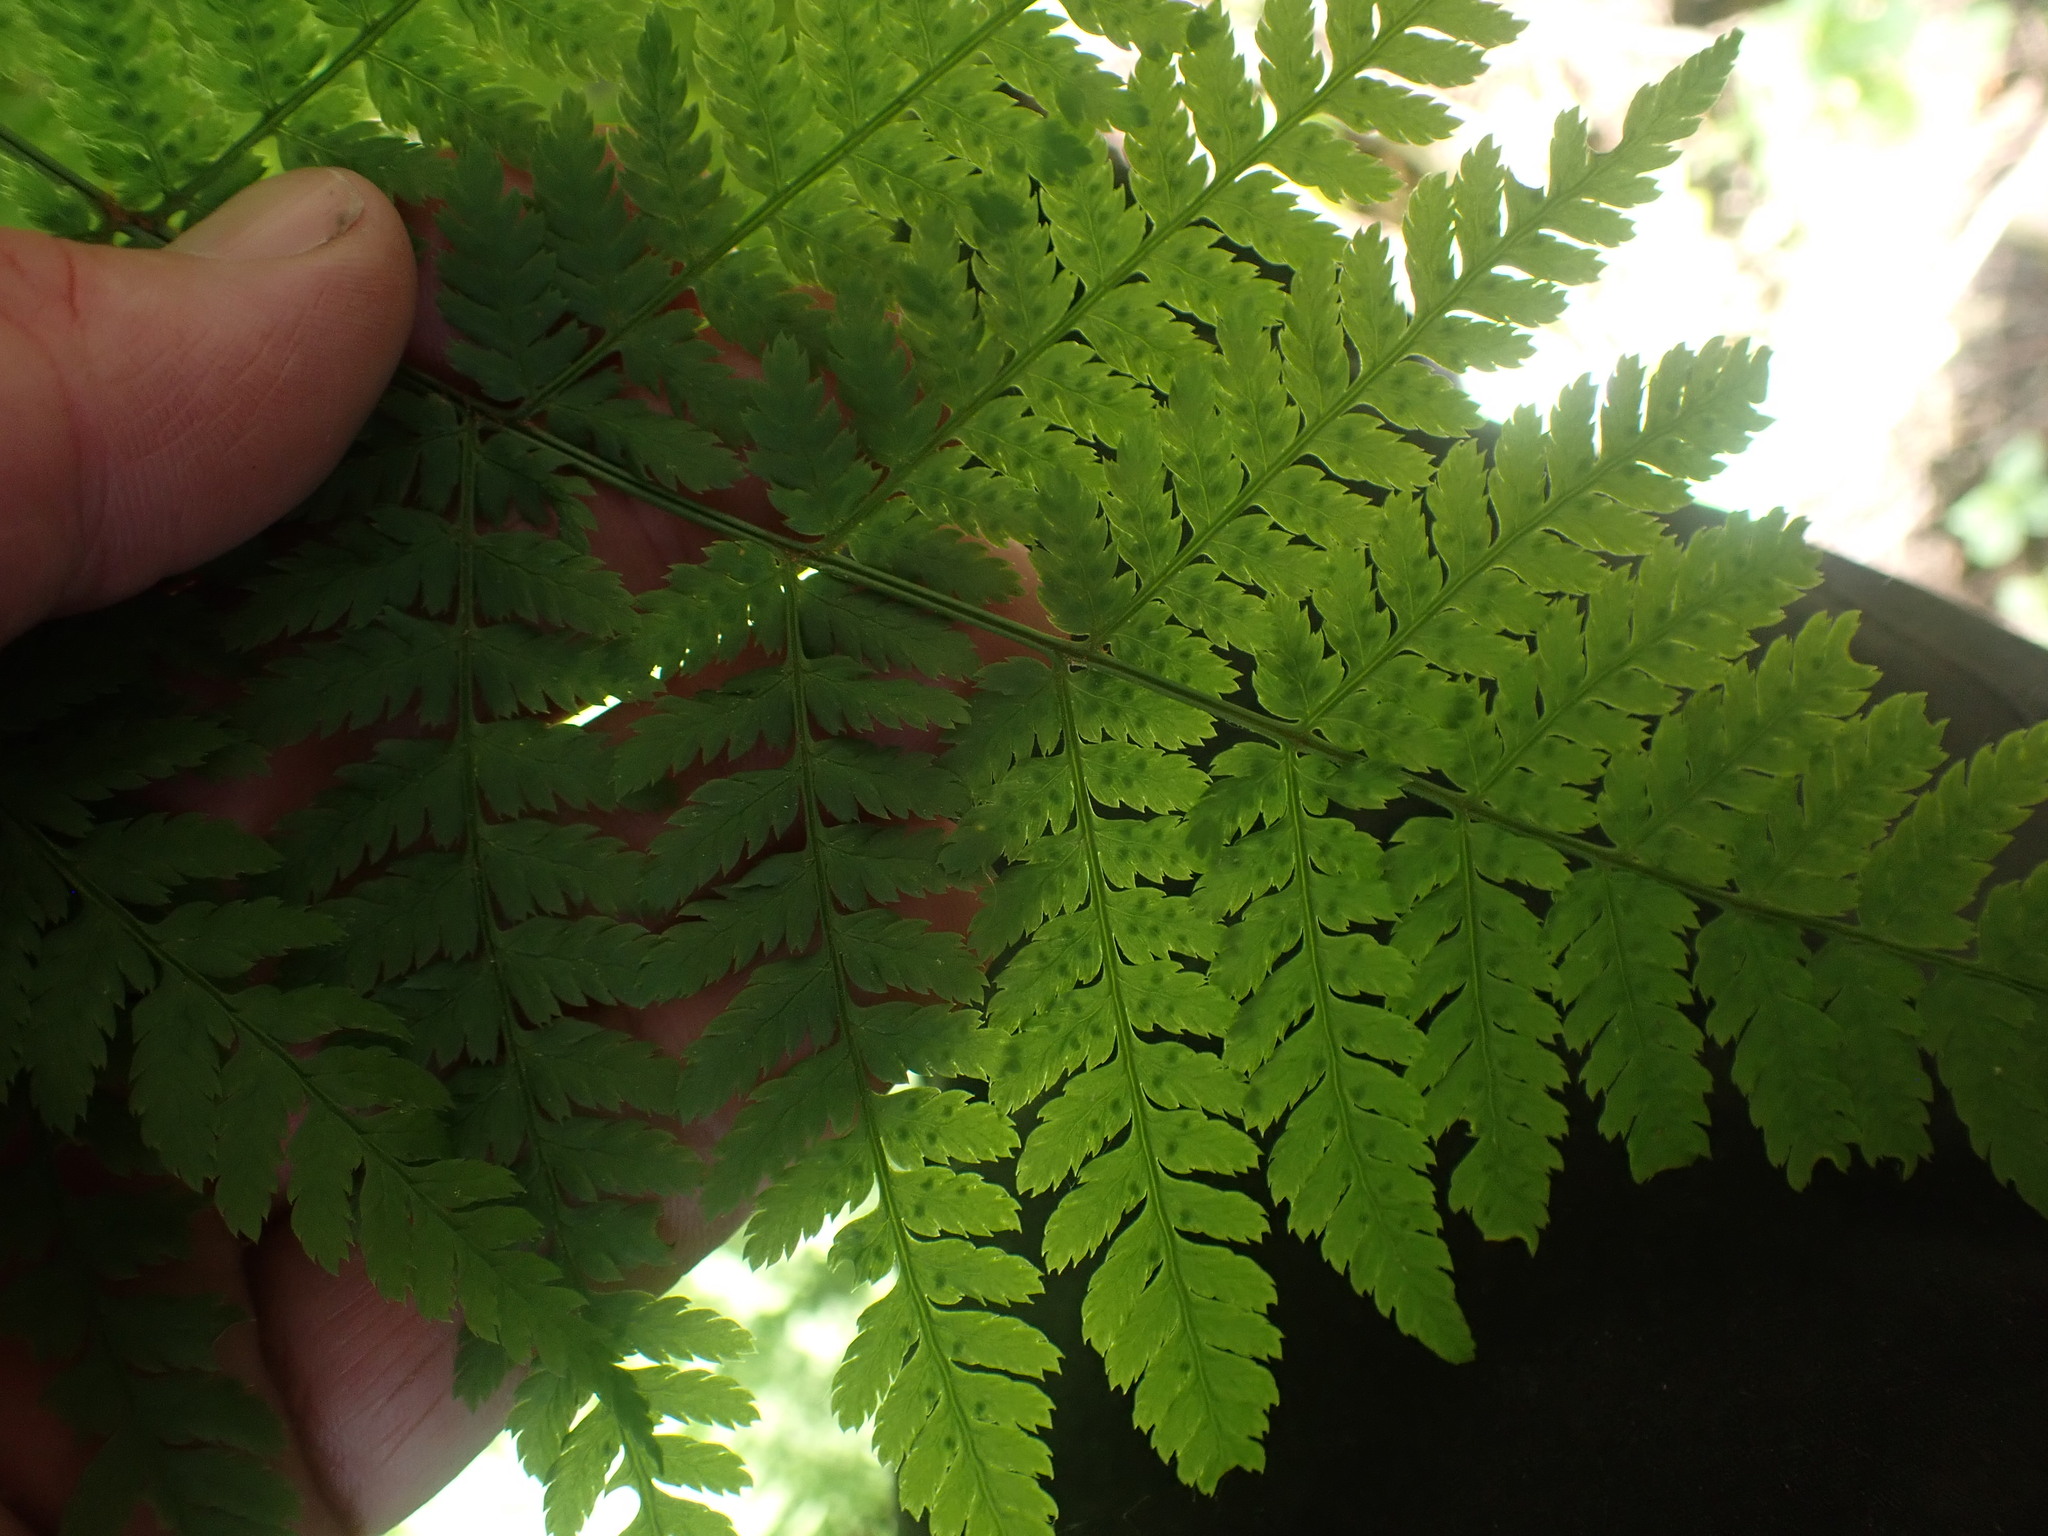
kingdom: Plantae
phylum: Tracheophyta
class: Polypodiopsida
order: Polypodiales
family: Dryopteridaceae
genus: Dryopteris
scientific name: Dryopteris expansa
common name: Northern buckler fern
